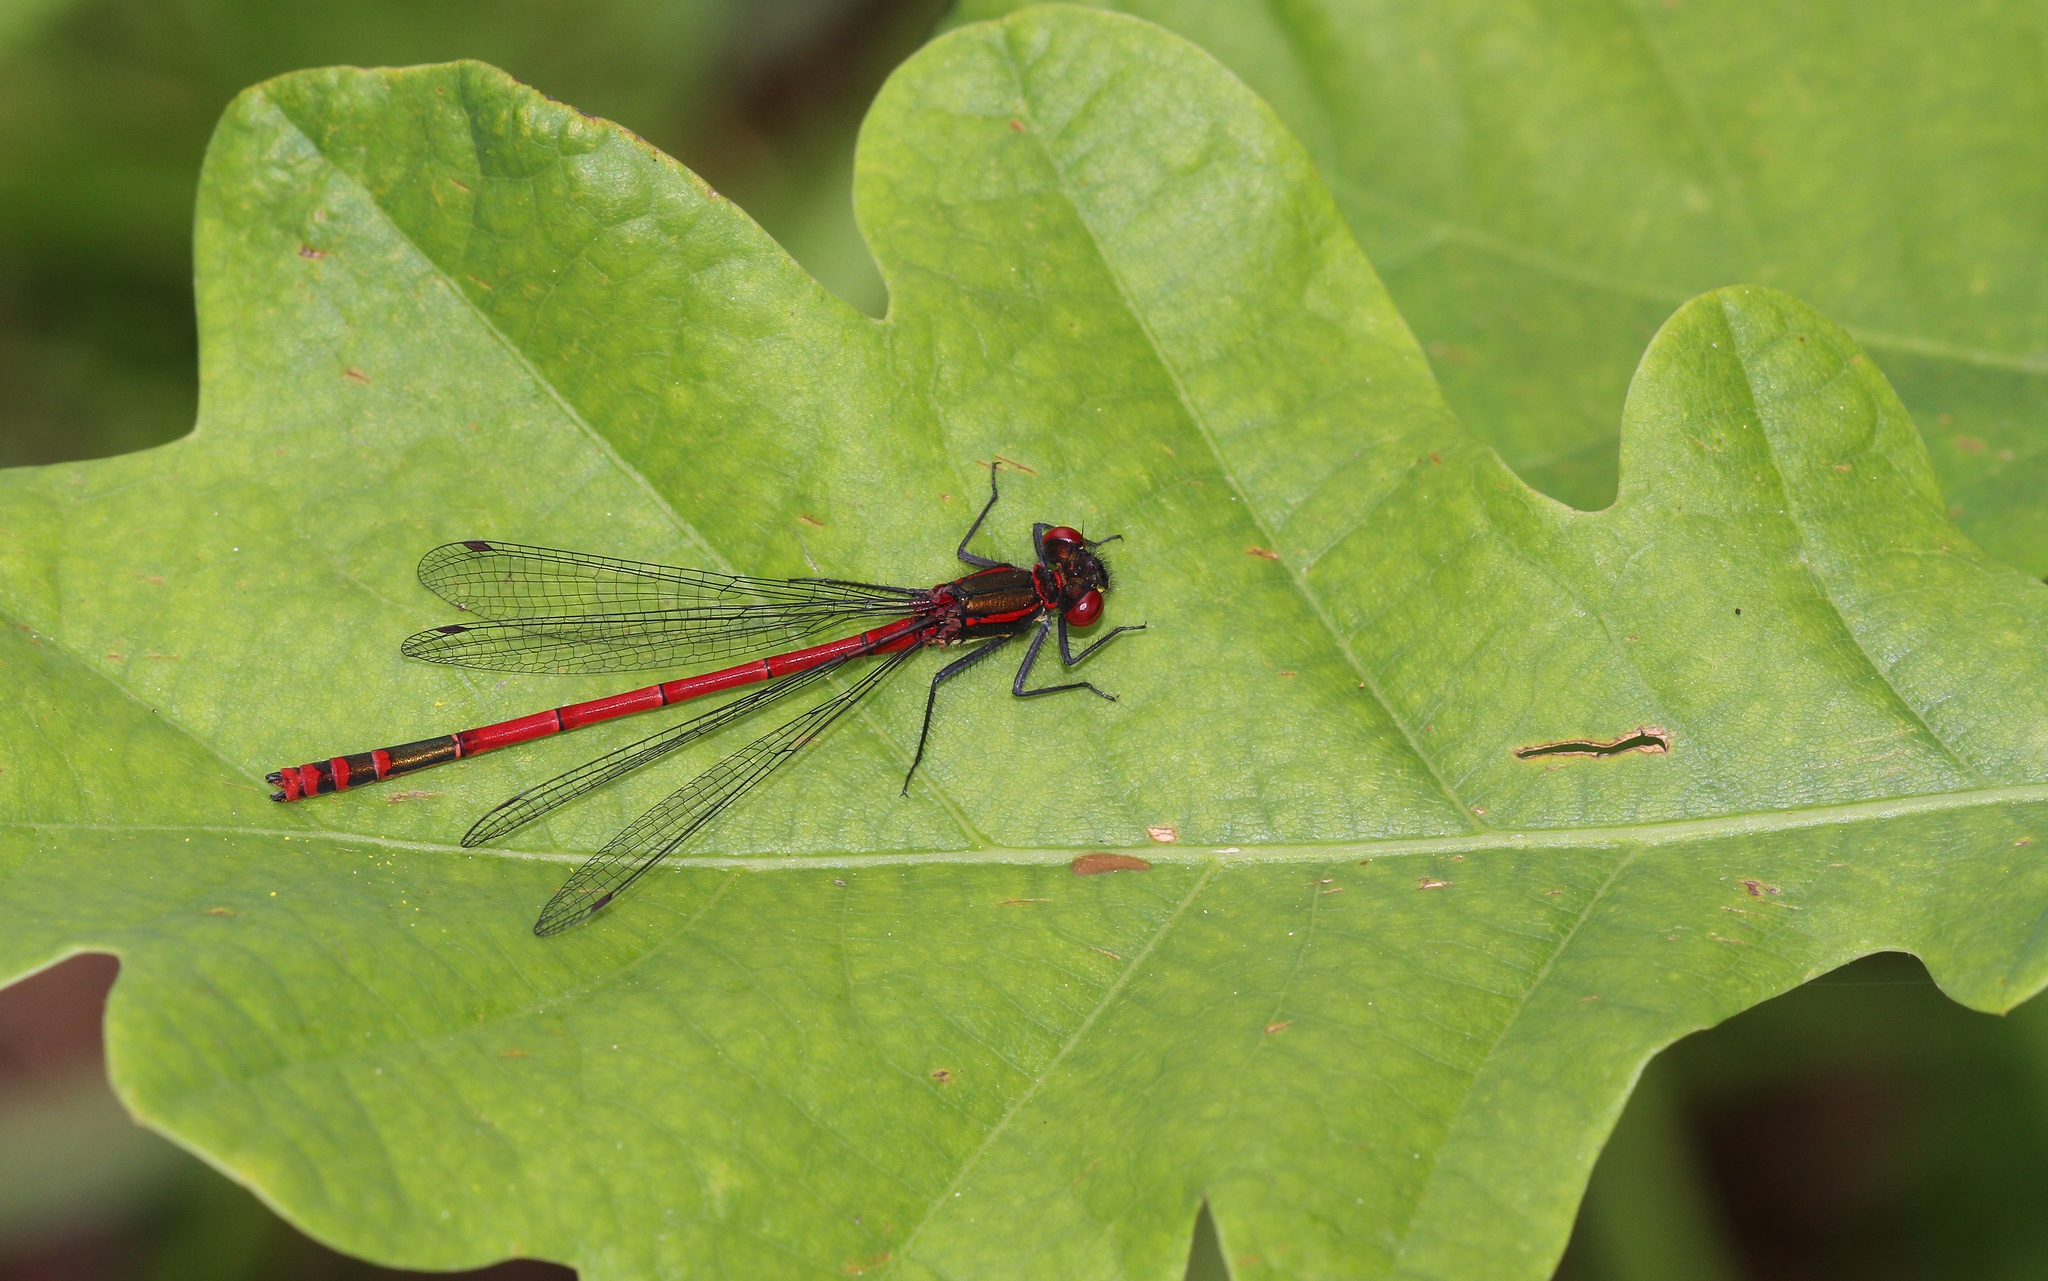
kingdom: Animalia
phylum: Arthropoda
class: Insecta
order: Odonata
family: Coenagrionidae
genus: Pyrrhosoma
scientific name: Pyrrhosoma nymphula
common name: Large red damsel
